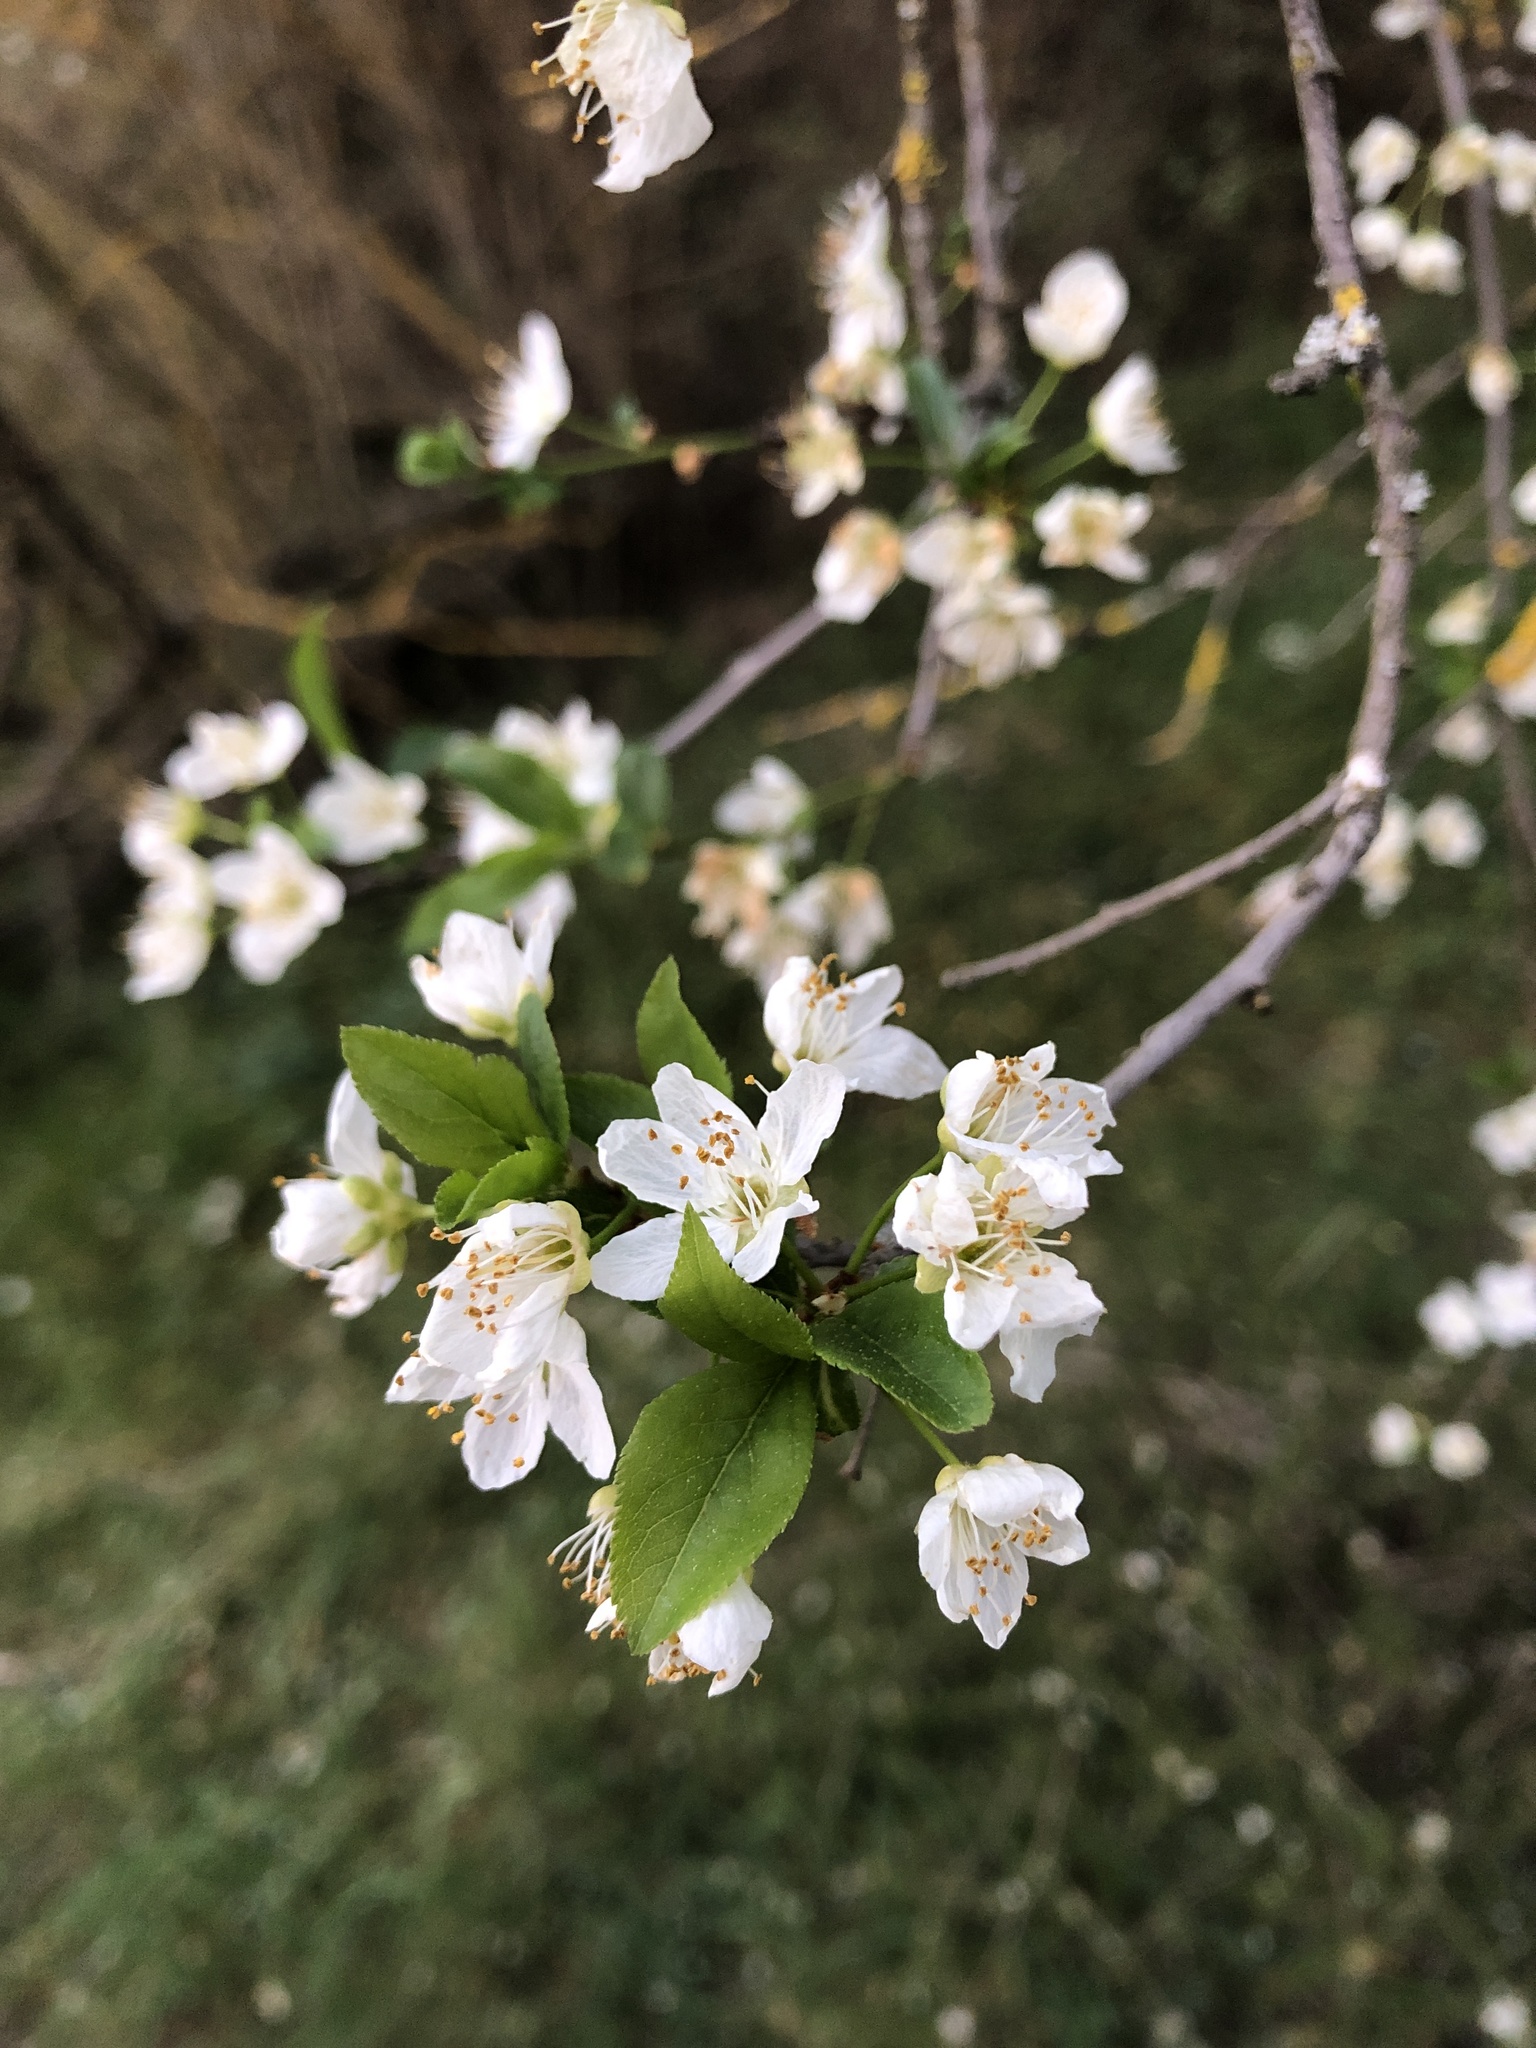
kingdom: Plantae
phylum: Tracheophyta
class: Magnoliopsida
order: Rosales
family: Rosaceae
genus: Prunus
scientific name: Prunus domestica
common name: Wild plum
